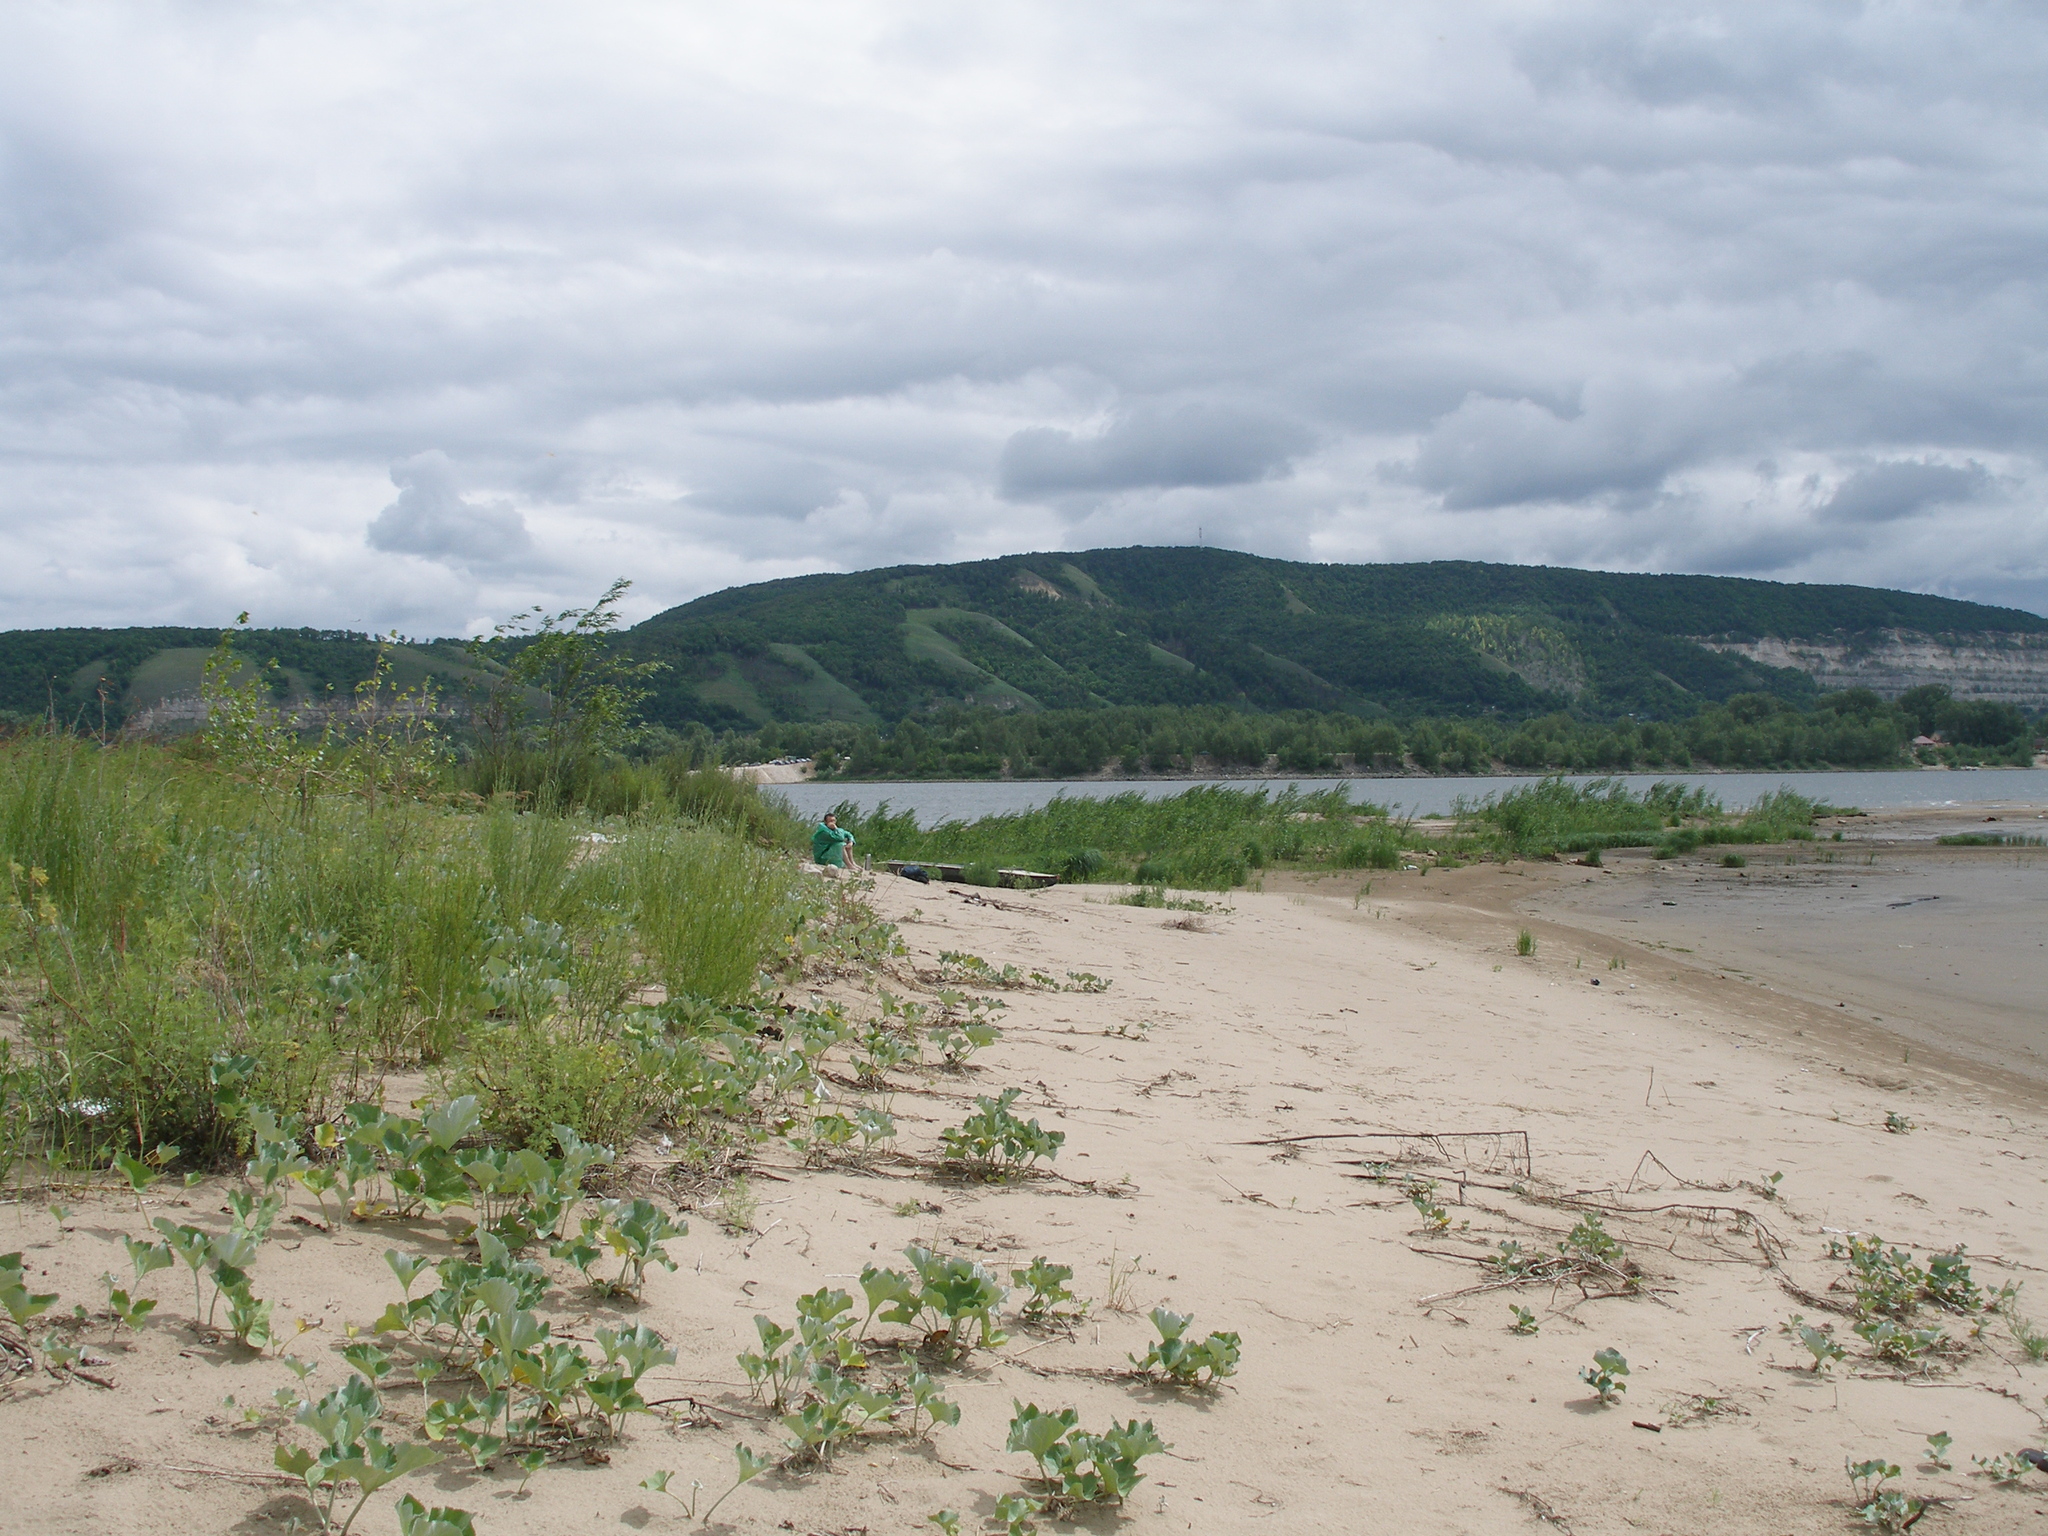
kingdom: Plantae
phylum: Tracheophyta
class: Magnoliopsida
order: Asterales
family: Asteraceae
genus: Petasites
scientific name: Petasites spurius
